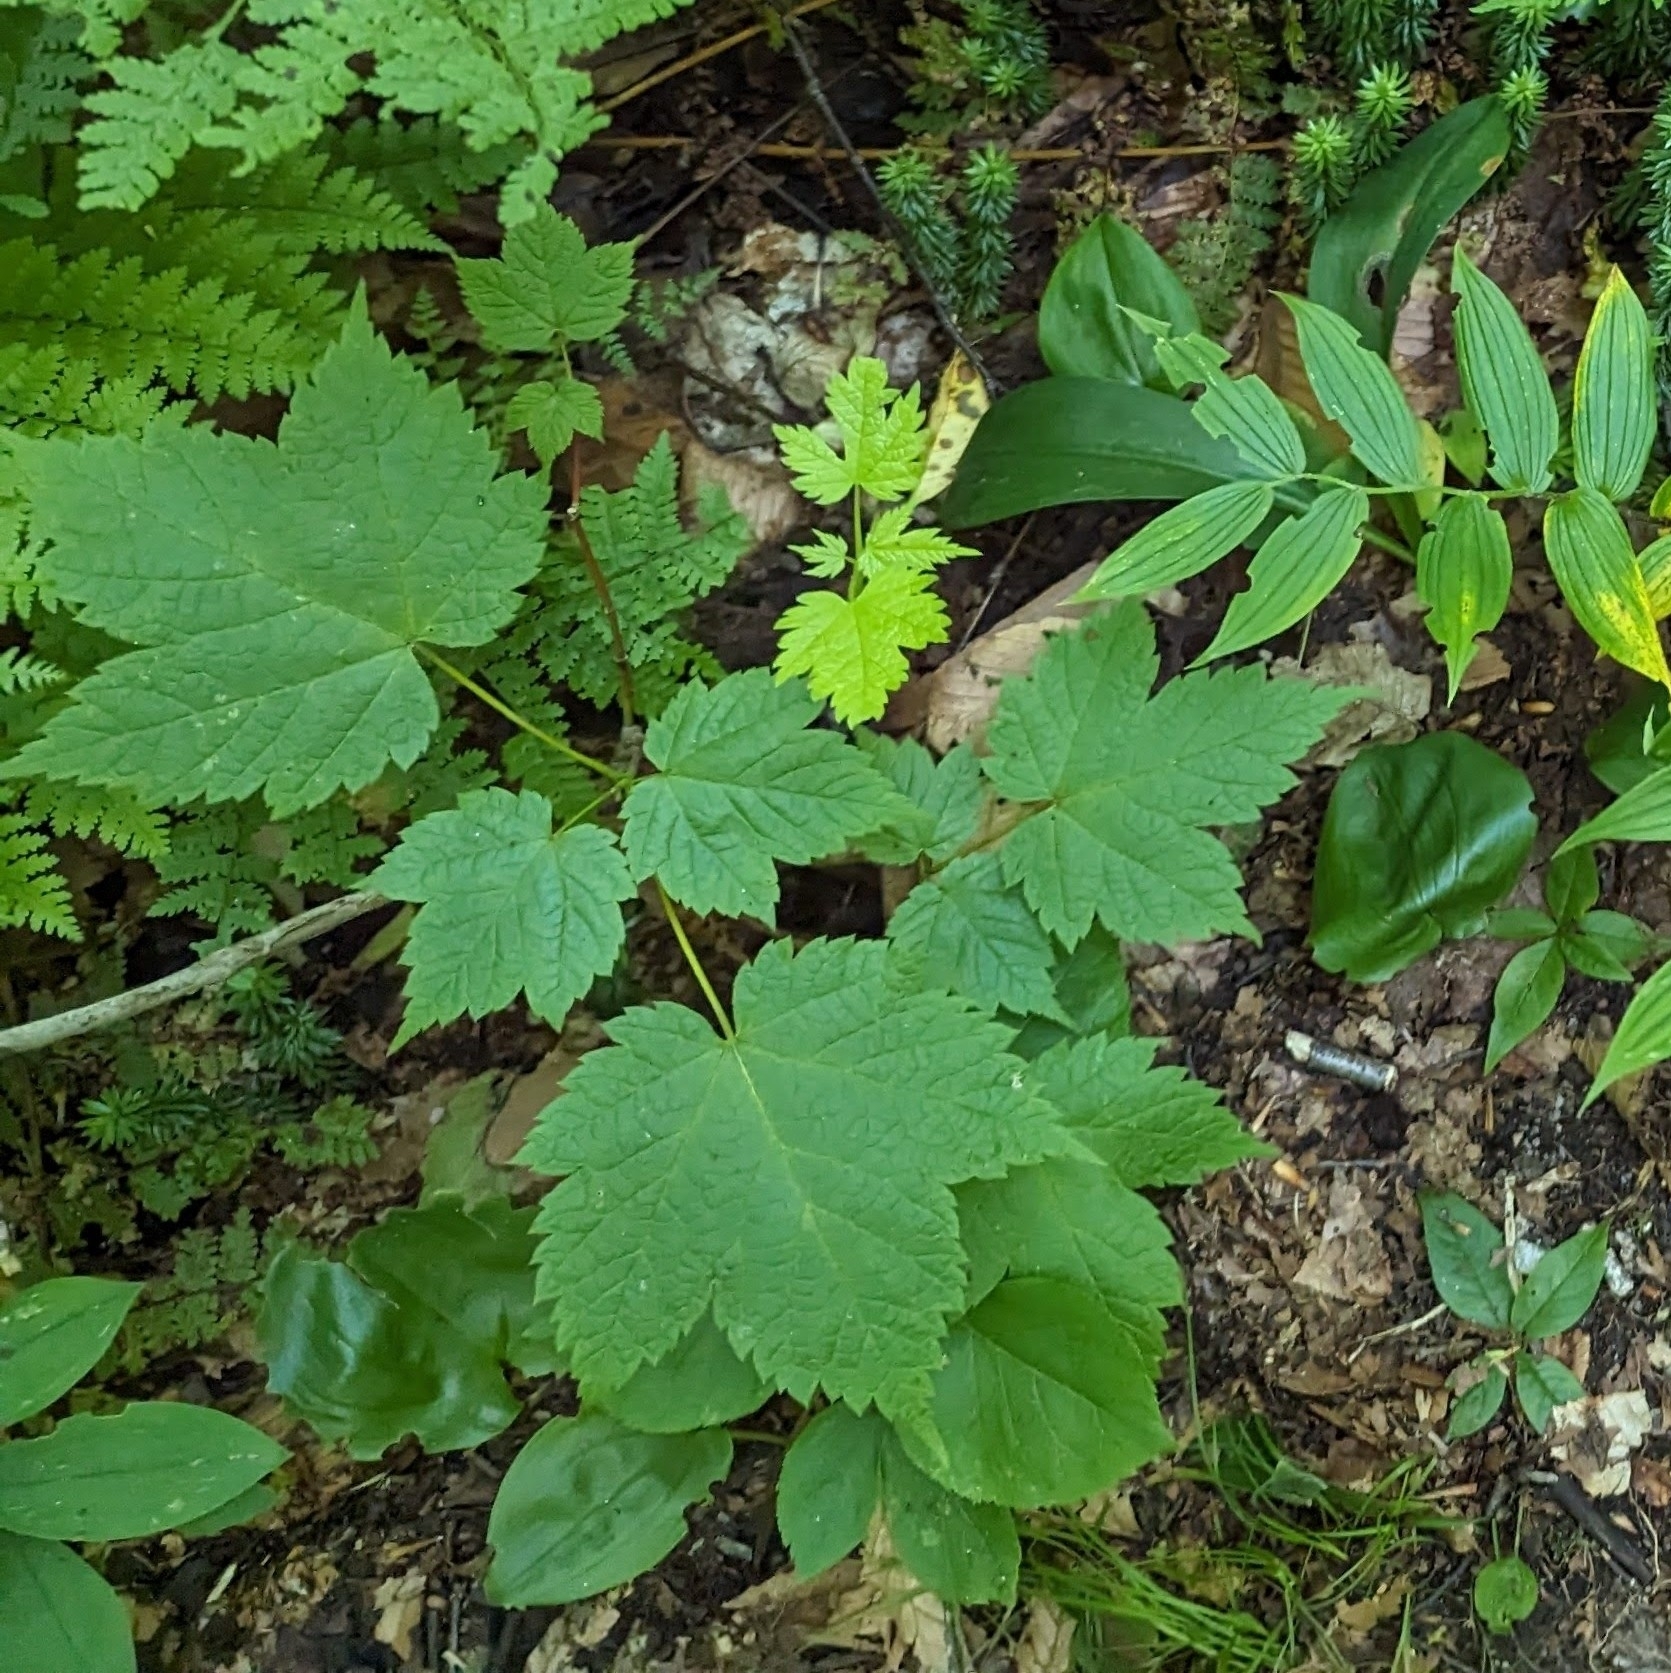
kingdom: Plantae
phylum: Tracheophyta
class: Magnoliopsida
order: Sapindales
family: Sapindaceae
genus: Acer
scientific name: Acer spicatum
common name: Mountain maple
